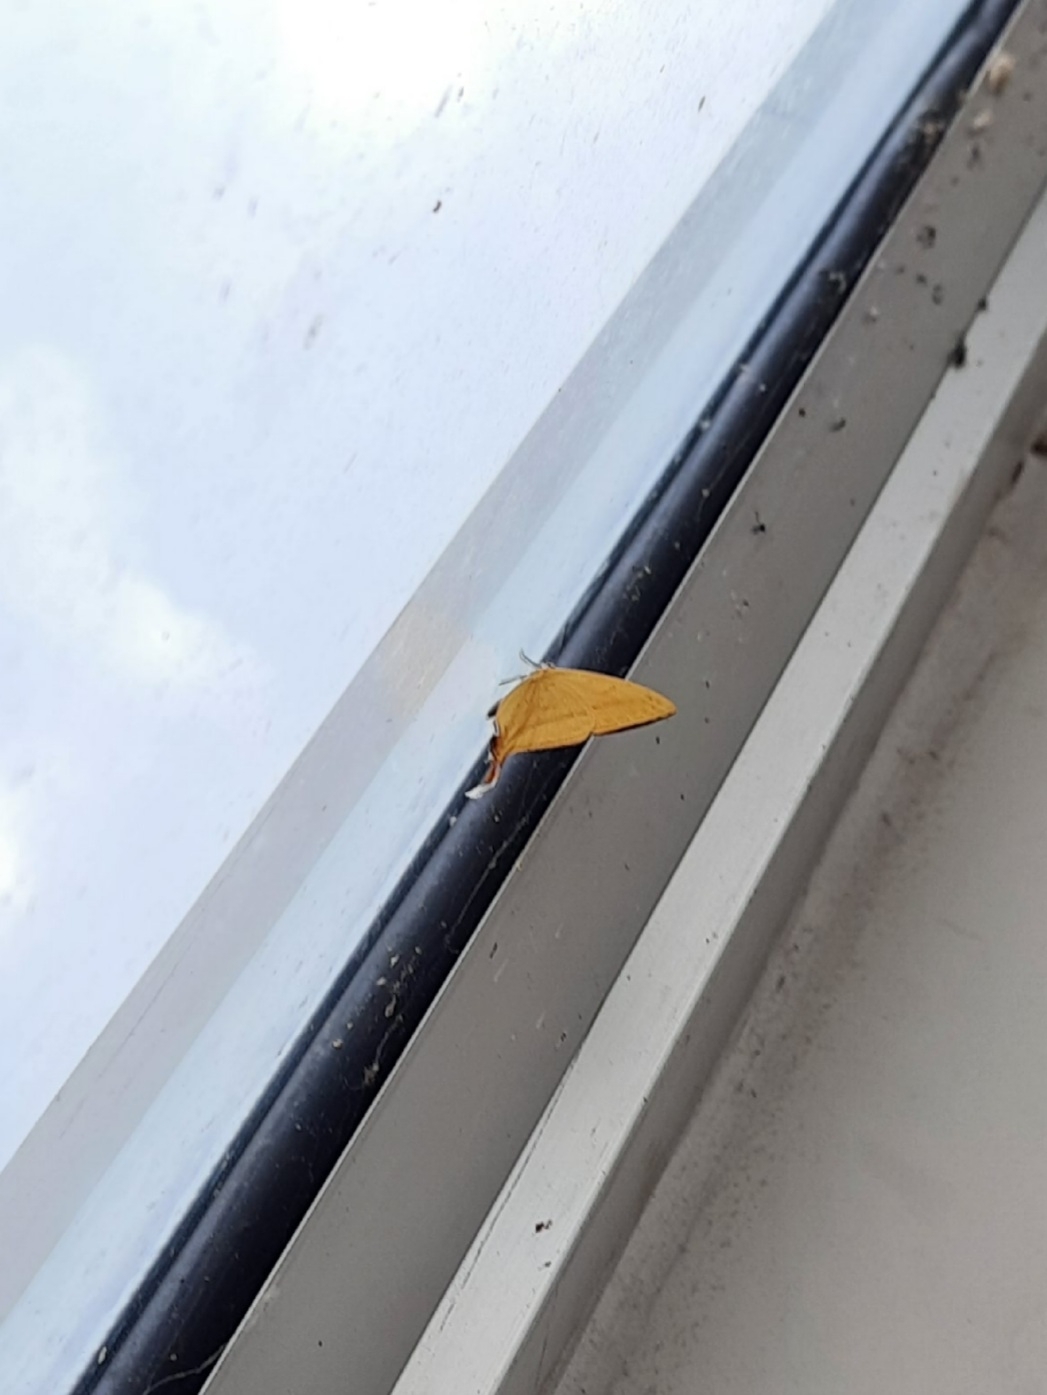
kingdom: Animalia
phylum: Arthropoda
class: Insecta
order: Lepidoptera
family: Lycaenidae
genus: Loxura
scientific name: Loxura atymnus
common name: Common yamfly
